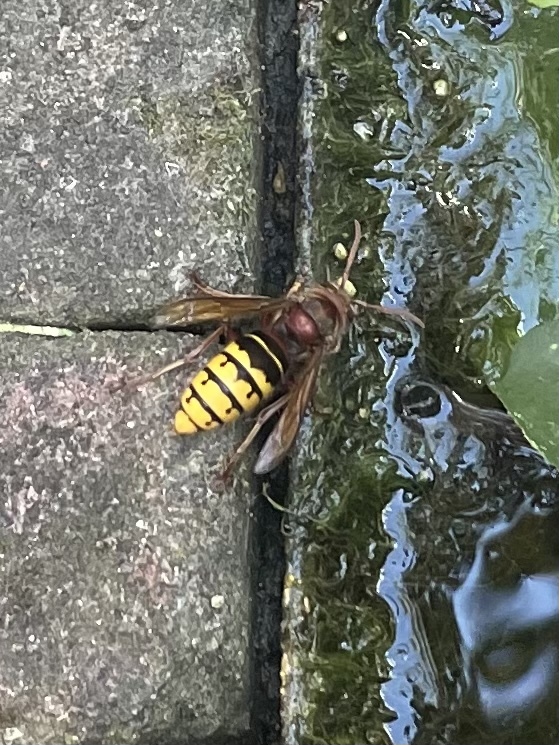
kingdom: Animalia
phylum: Arthropoda
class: Insecta
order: Hymenoptera
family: Vespidae
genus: Vespa
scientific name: Vespa crabro
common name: Hornet
